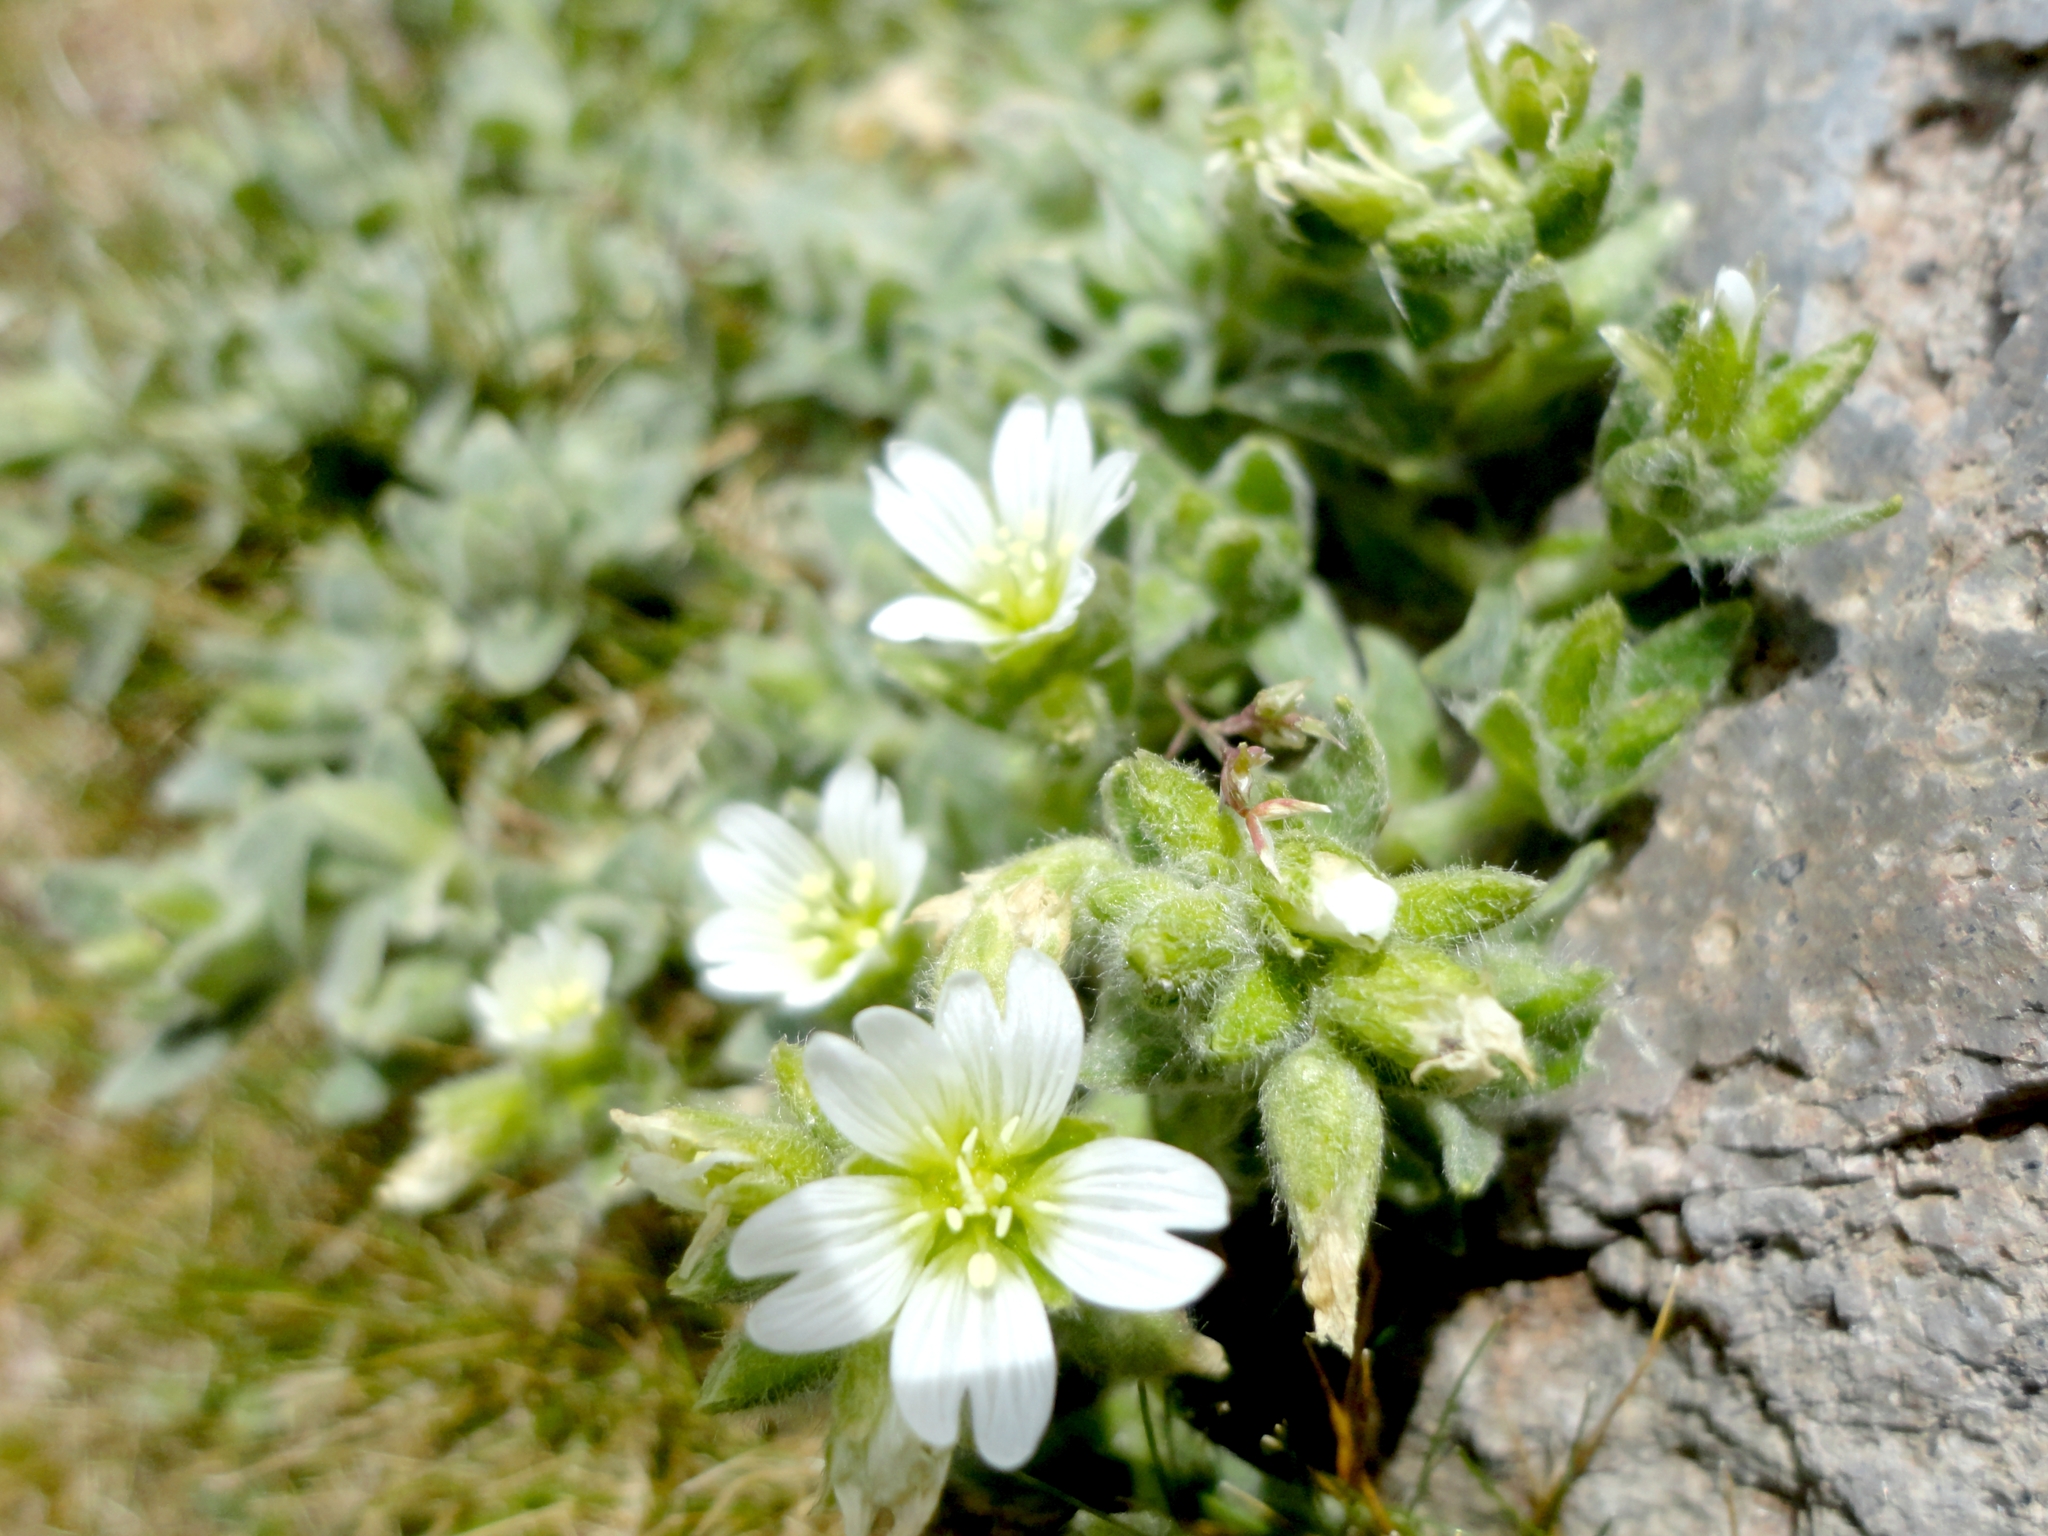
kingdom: Plantae
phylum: Tracheophyta
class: Magnoliopsida
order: Caryophyllales
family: Caryophyllaceae
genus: Cerastium
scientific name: Cerastium tolucense
